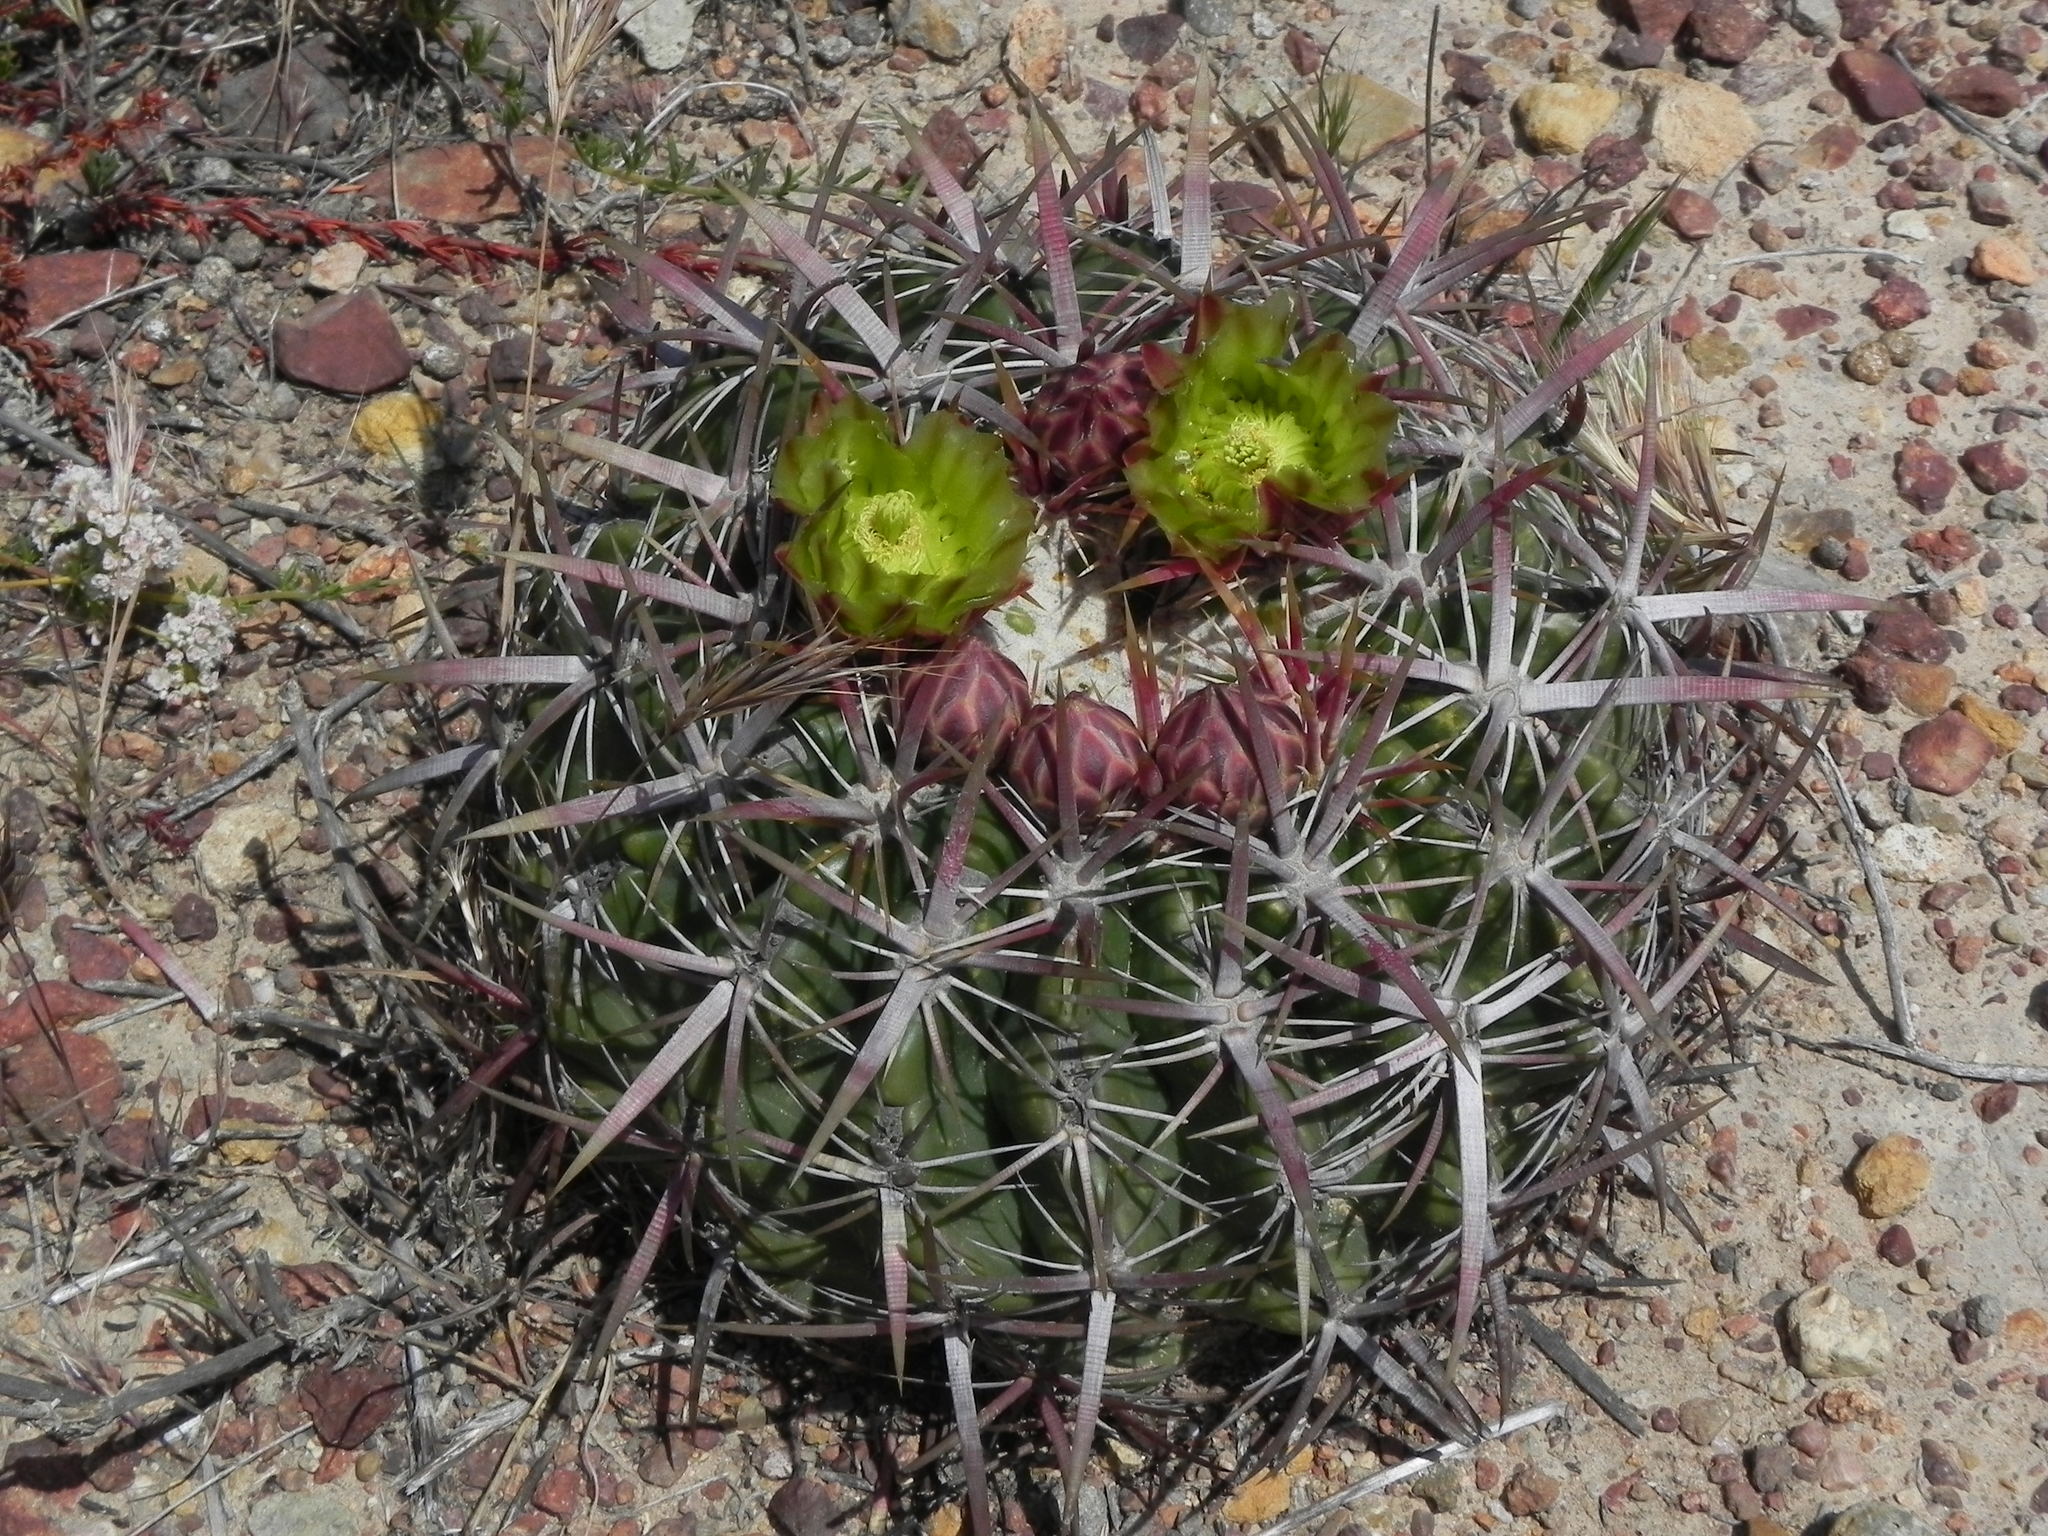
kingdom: Plantae
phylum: Tracheophyta
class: Magnoliopsida
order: Caryophyllales
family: Cactaceae
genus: Ferocactus
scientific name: Ferocactus viridescens
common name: San diego barrel cactus
